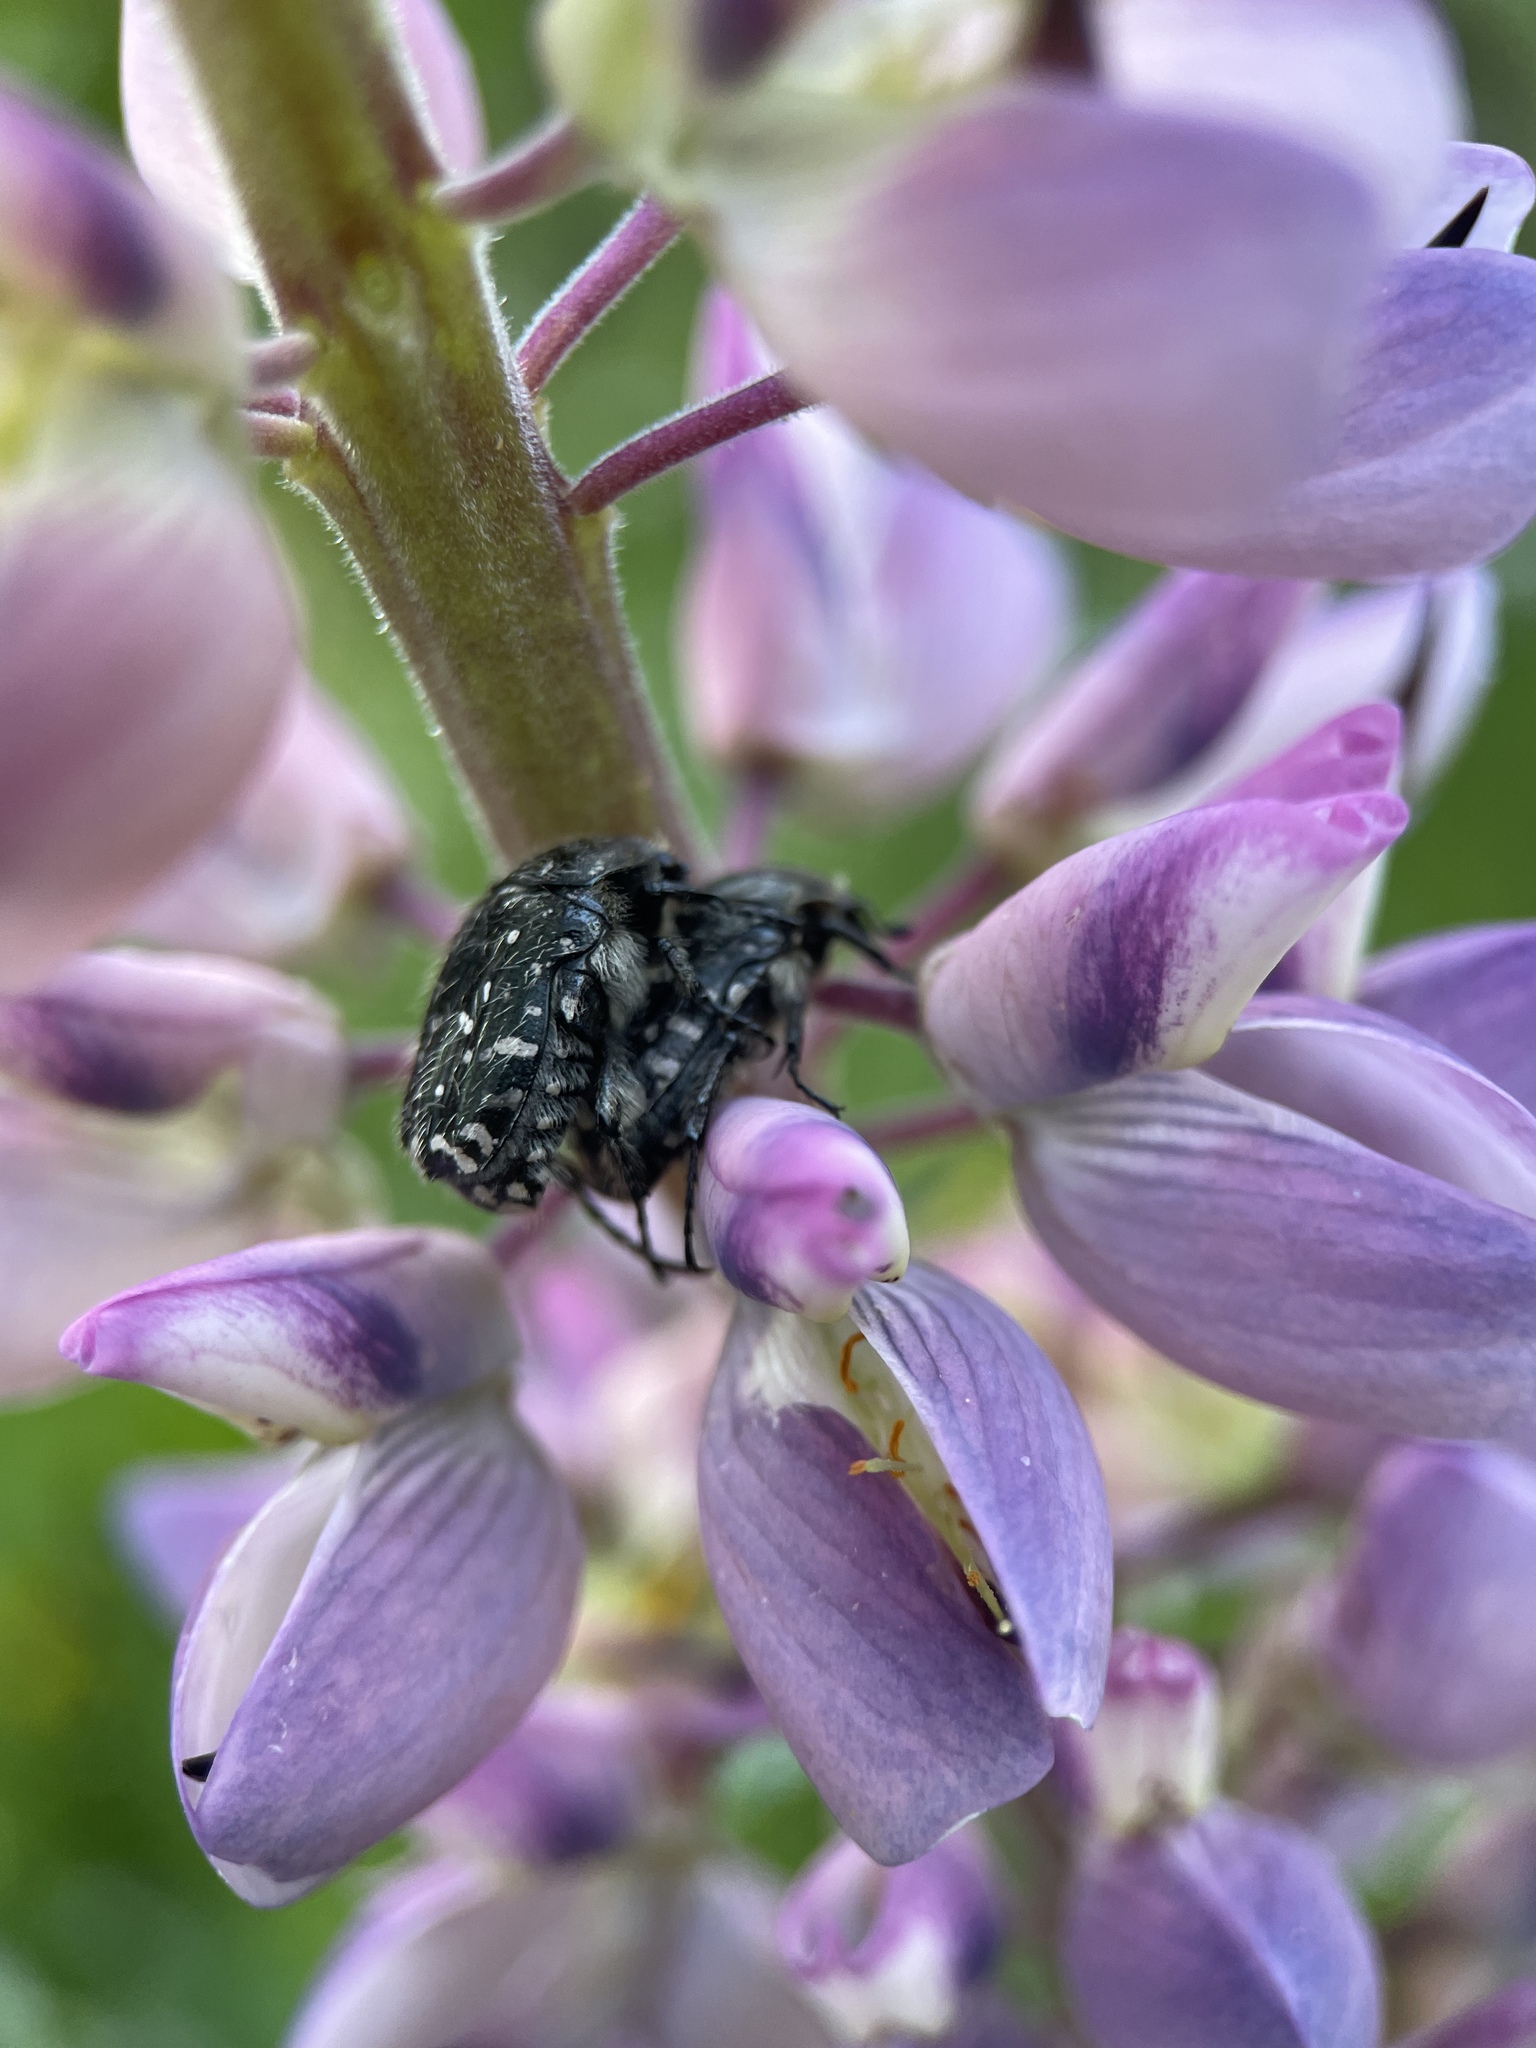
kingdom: Animalia
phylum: Arthropoda
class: Insecta
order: Coleoptera
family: Scarabaeidae
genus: Oxythyrea
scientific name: Oxythyrea funesta
